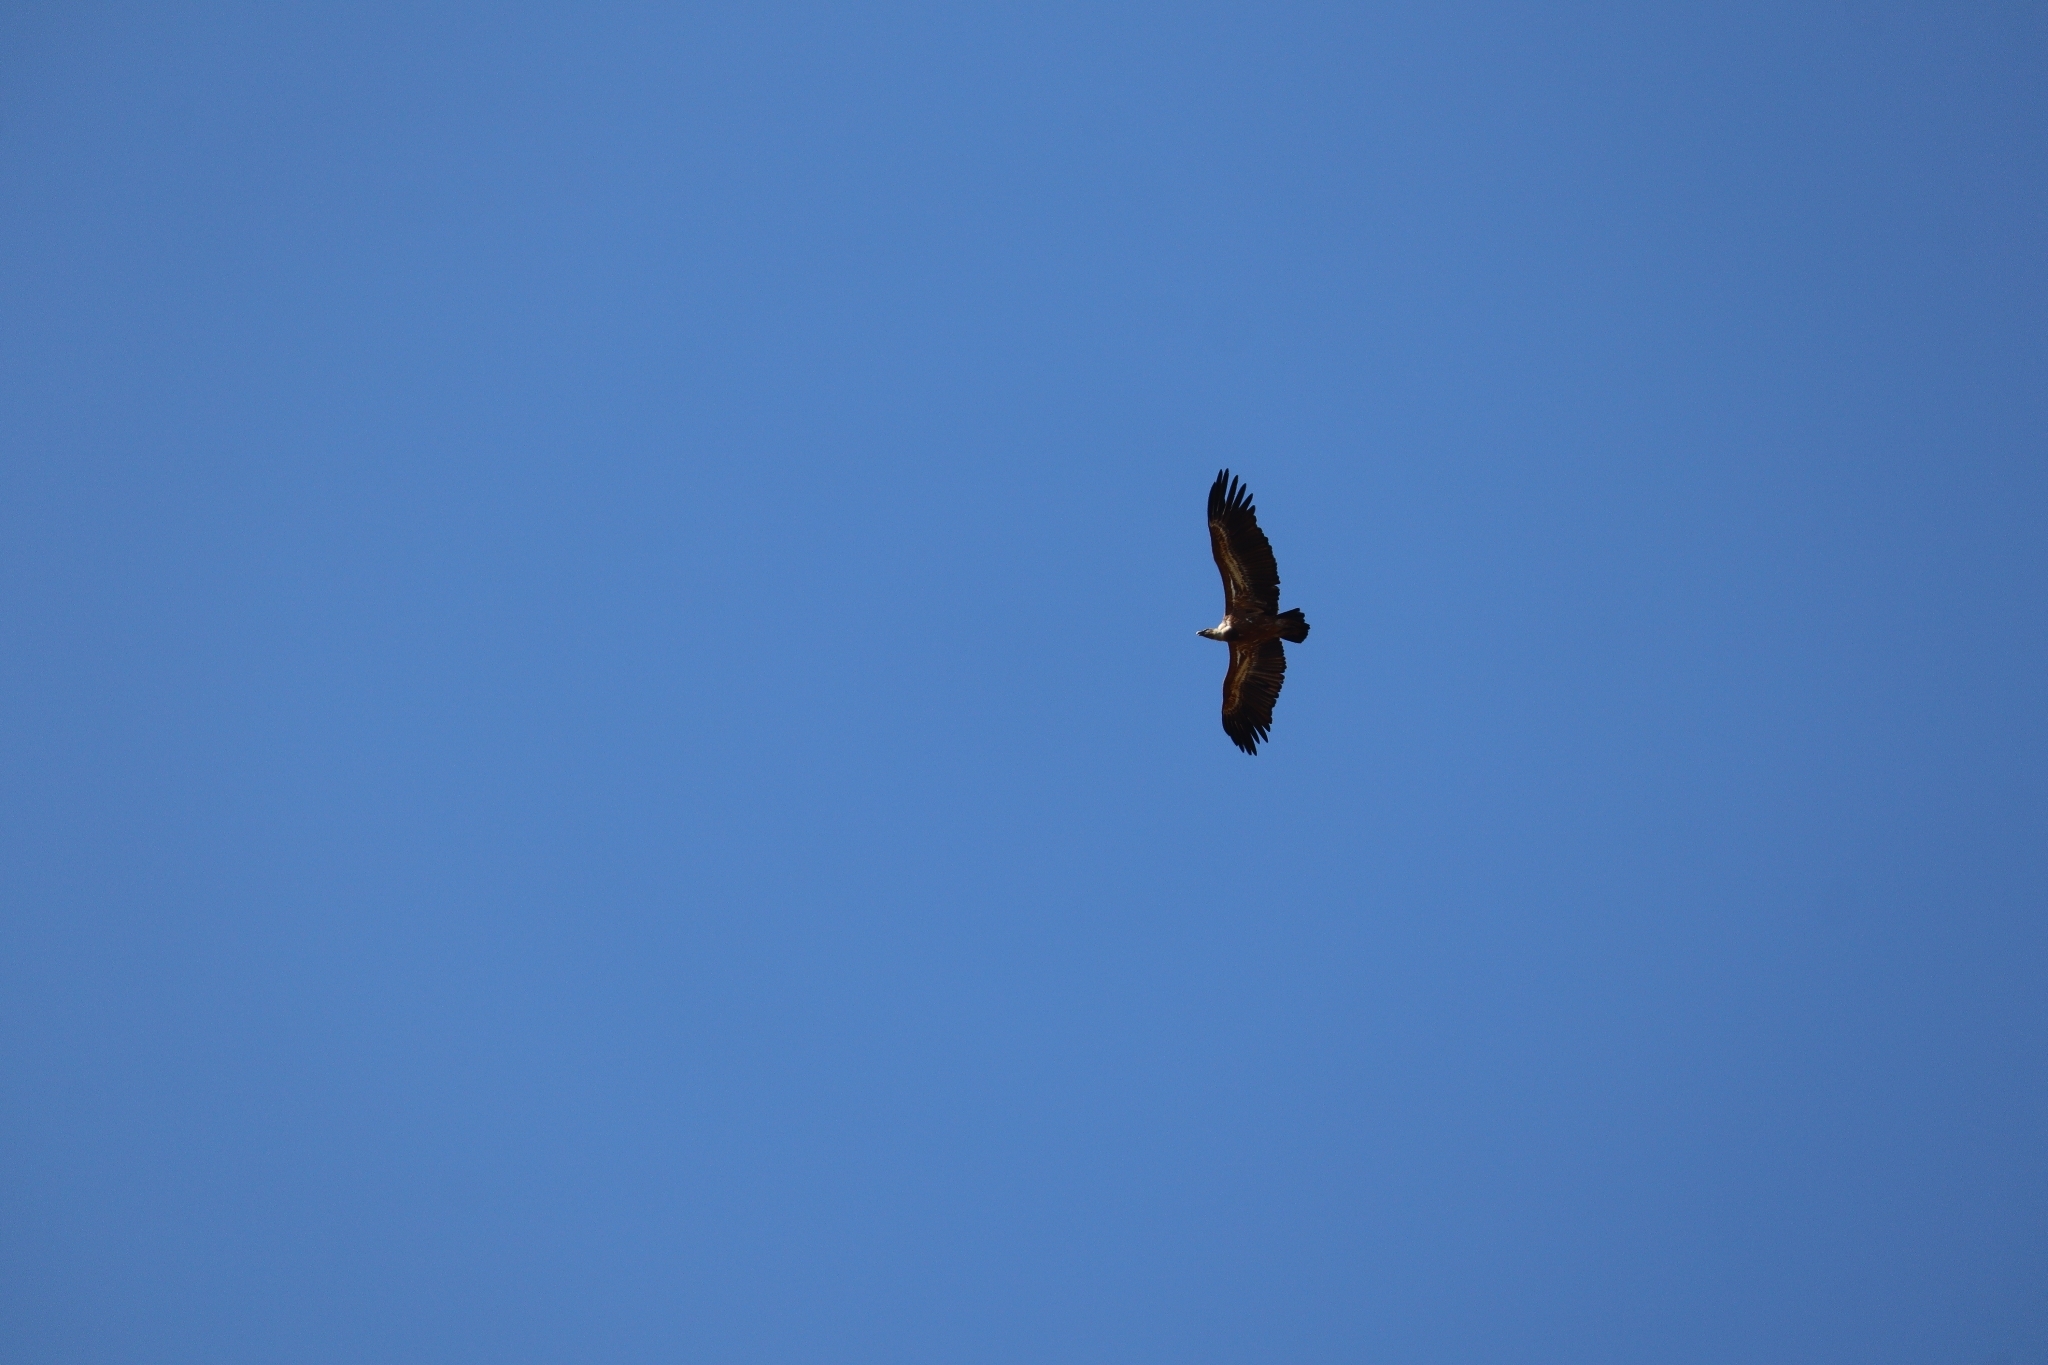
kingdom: Animalia
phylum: Chordata
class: Aves
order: Accipitriformes
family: Accipitridae
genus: Gyps
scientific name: Gyps fulvus
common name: Griffon vulture
